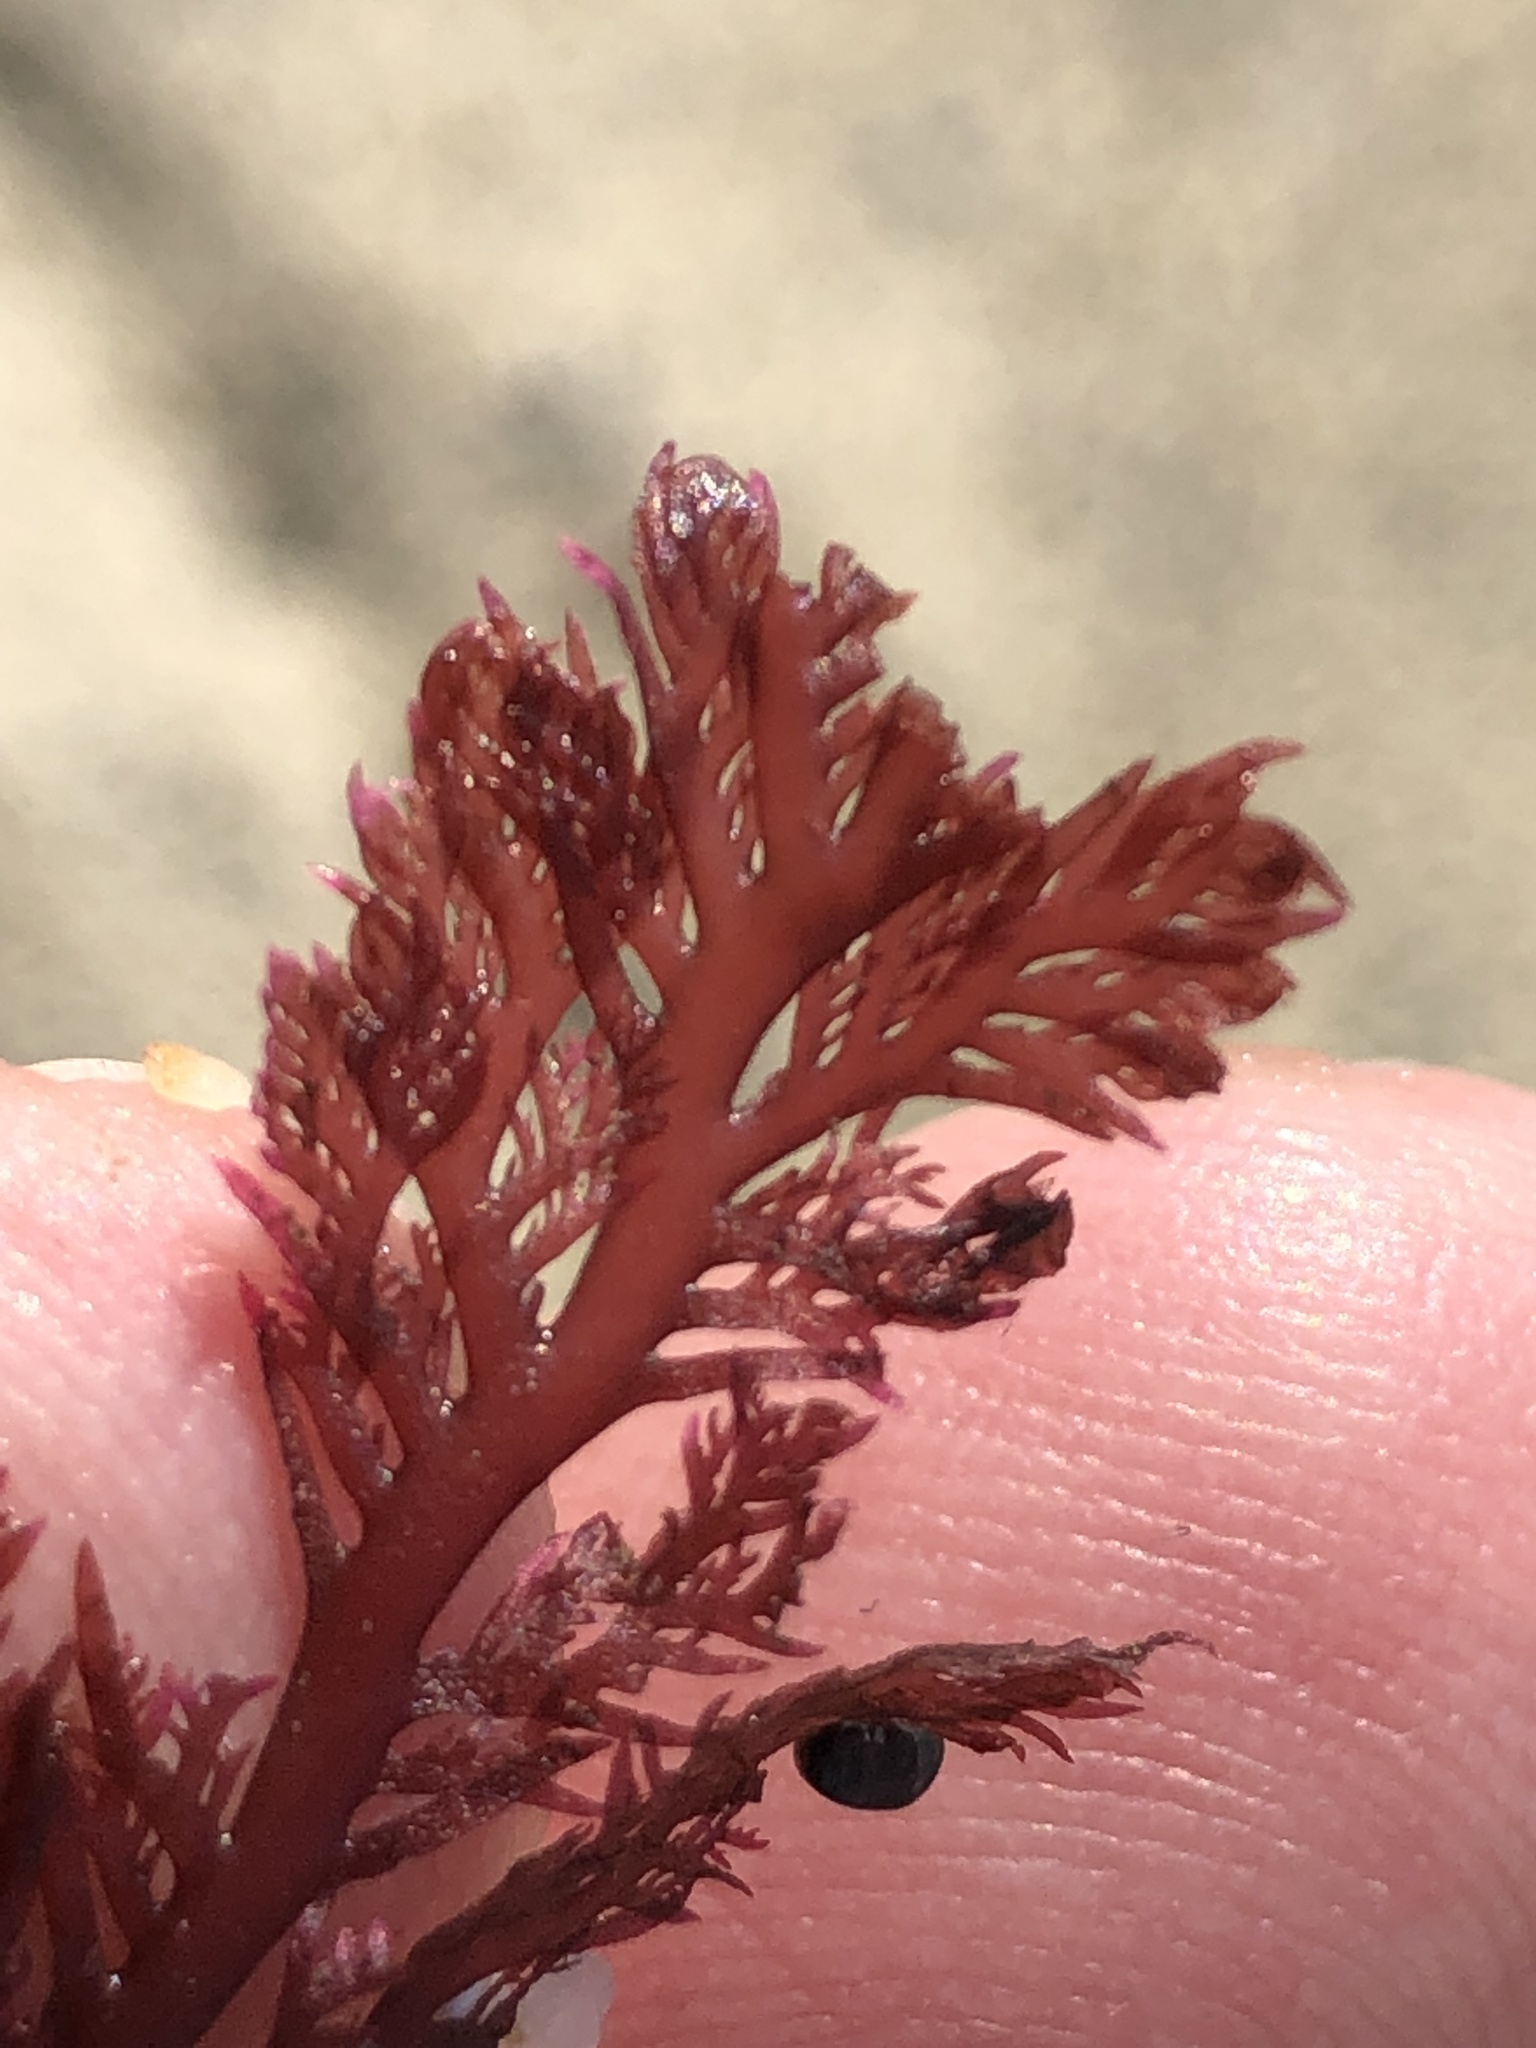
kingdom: Plantae
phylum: Rhodophyta
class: Florideophyceae
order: Plocamiales
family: Plocamiaceae
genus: Plocamium
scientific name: Plocamium cartilagineum
